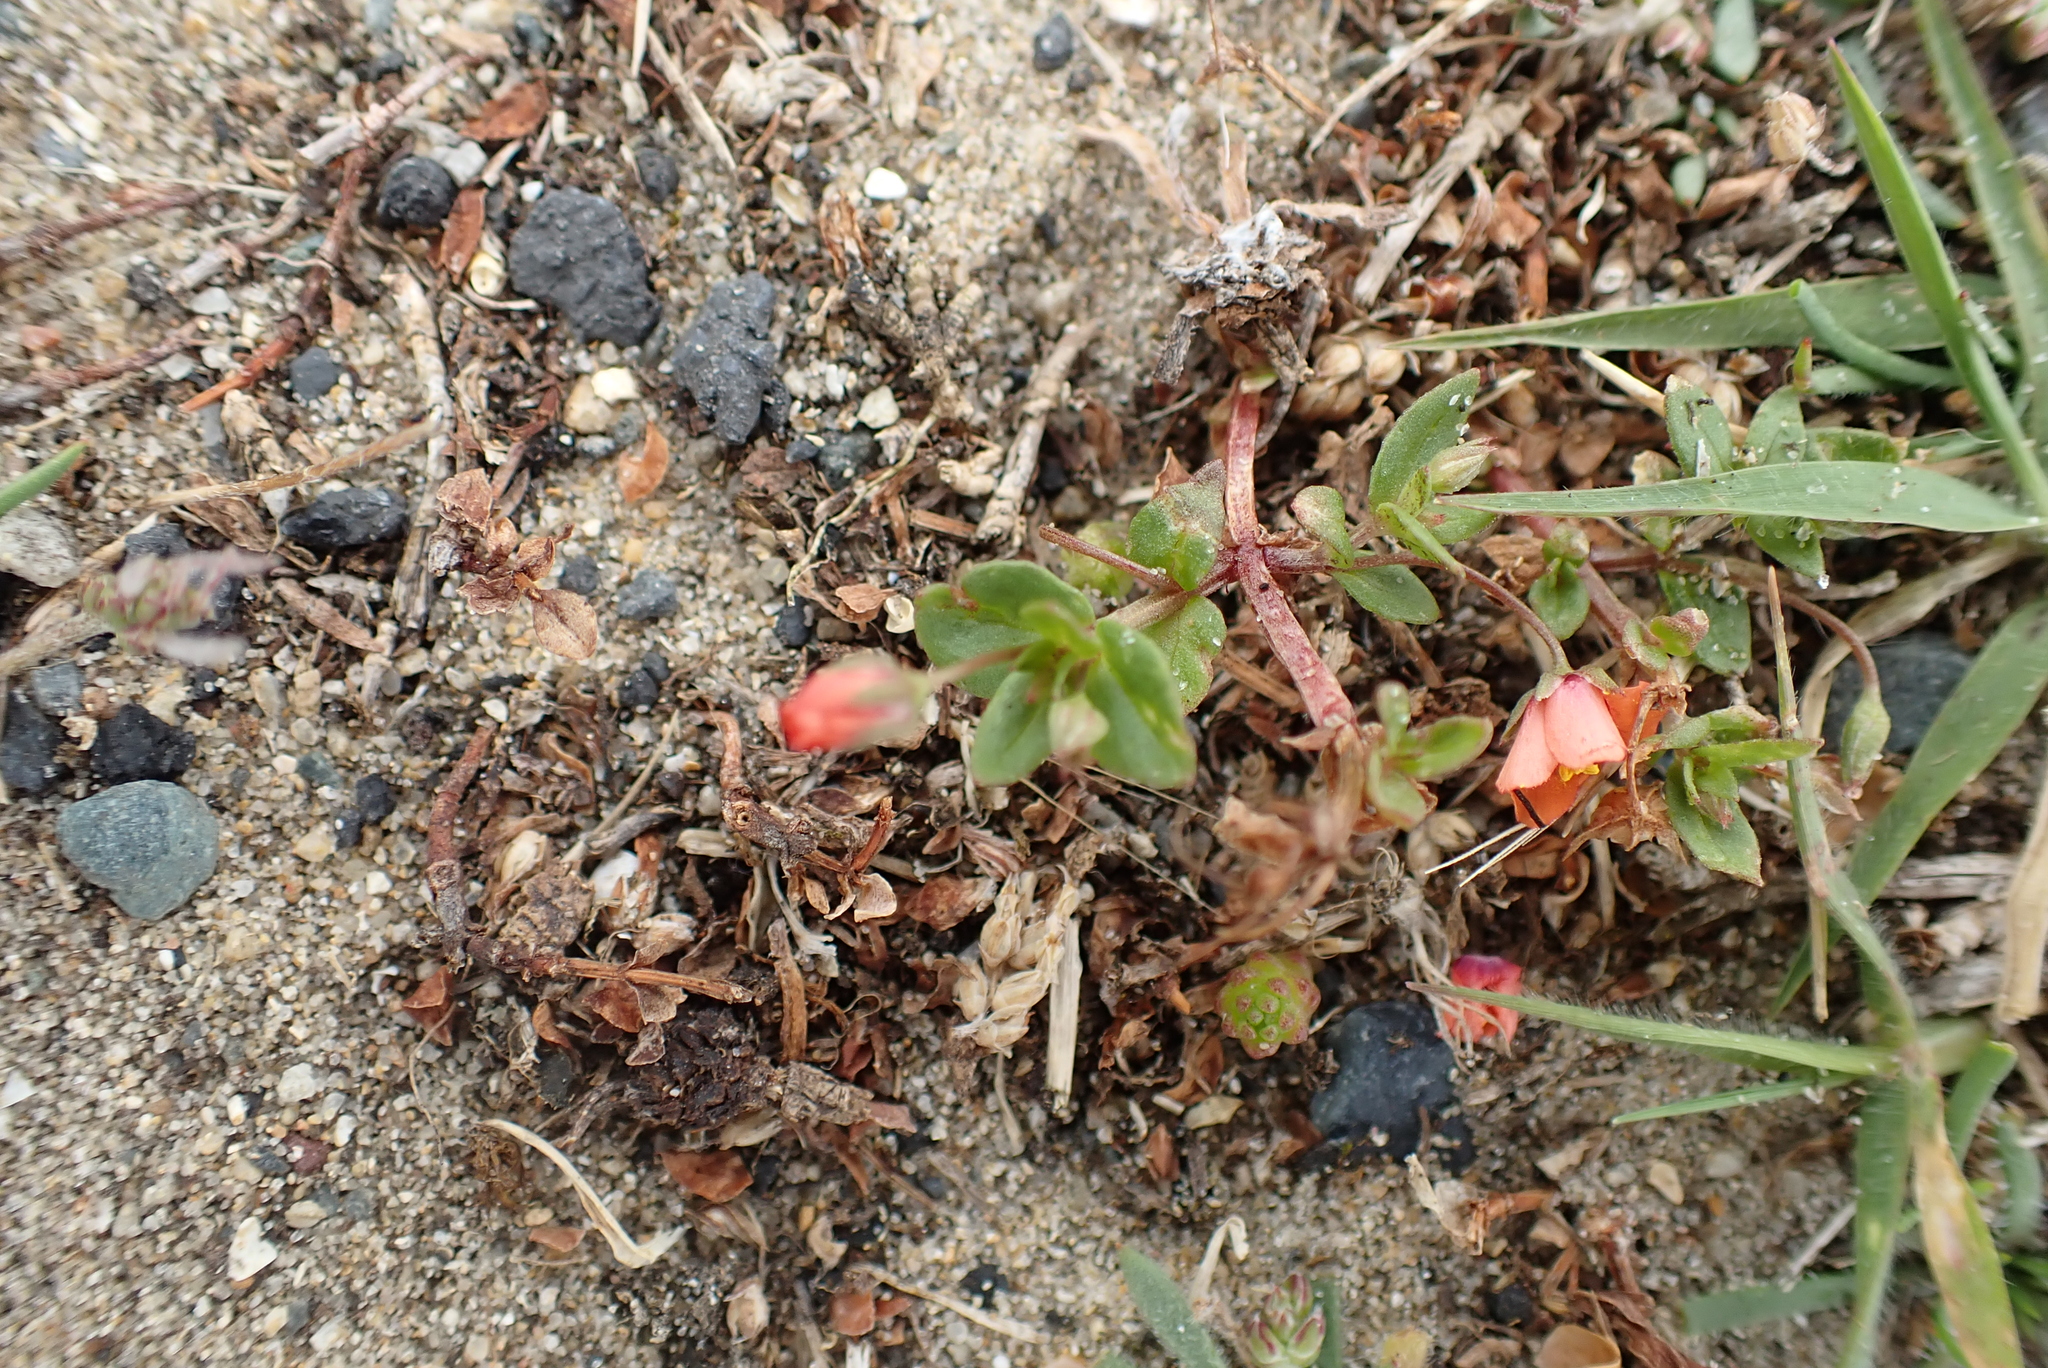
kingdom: Plantae
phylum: Tracheophyta
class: Magnoliopsida
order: Ericales
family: Primulaceae
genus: Lysimachia
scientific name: Lysimachia arvensis
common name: Scarlet pimpernel
